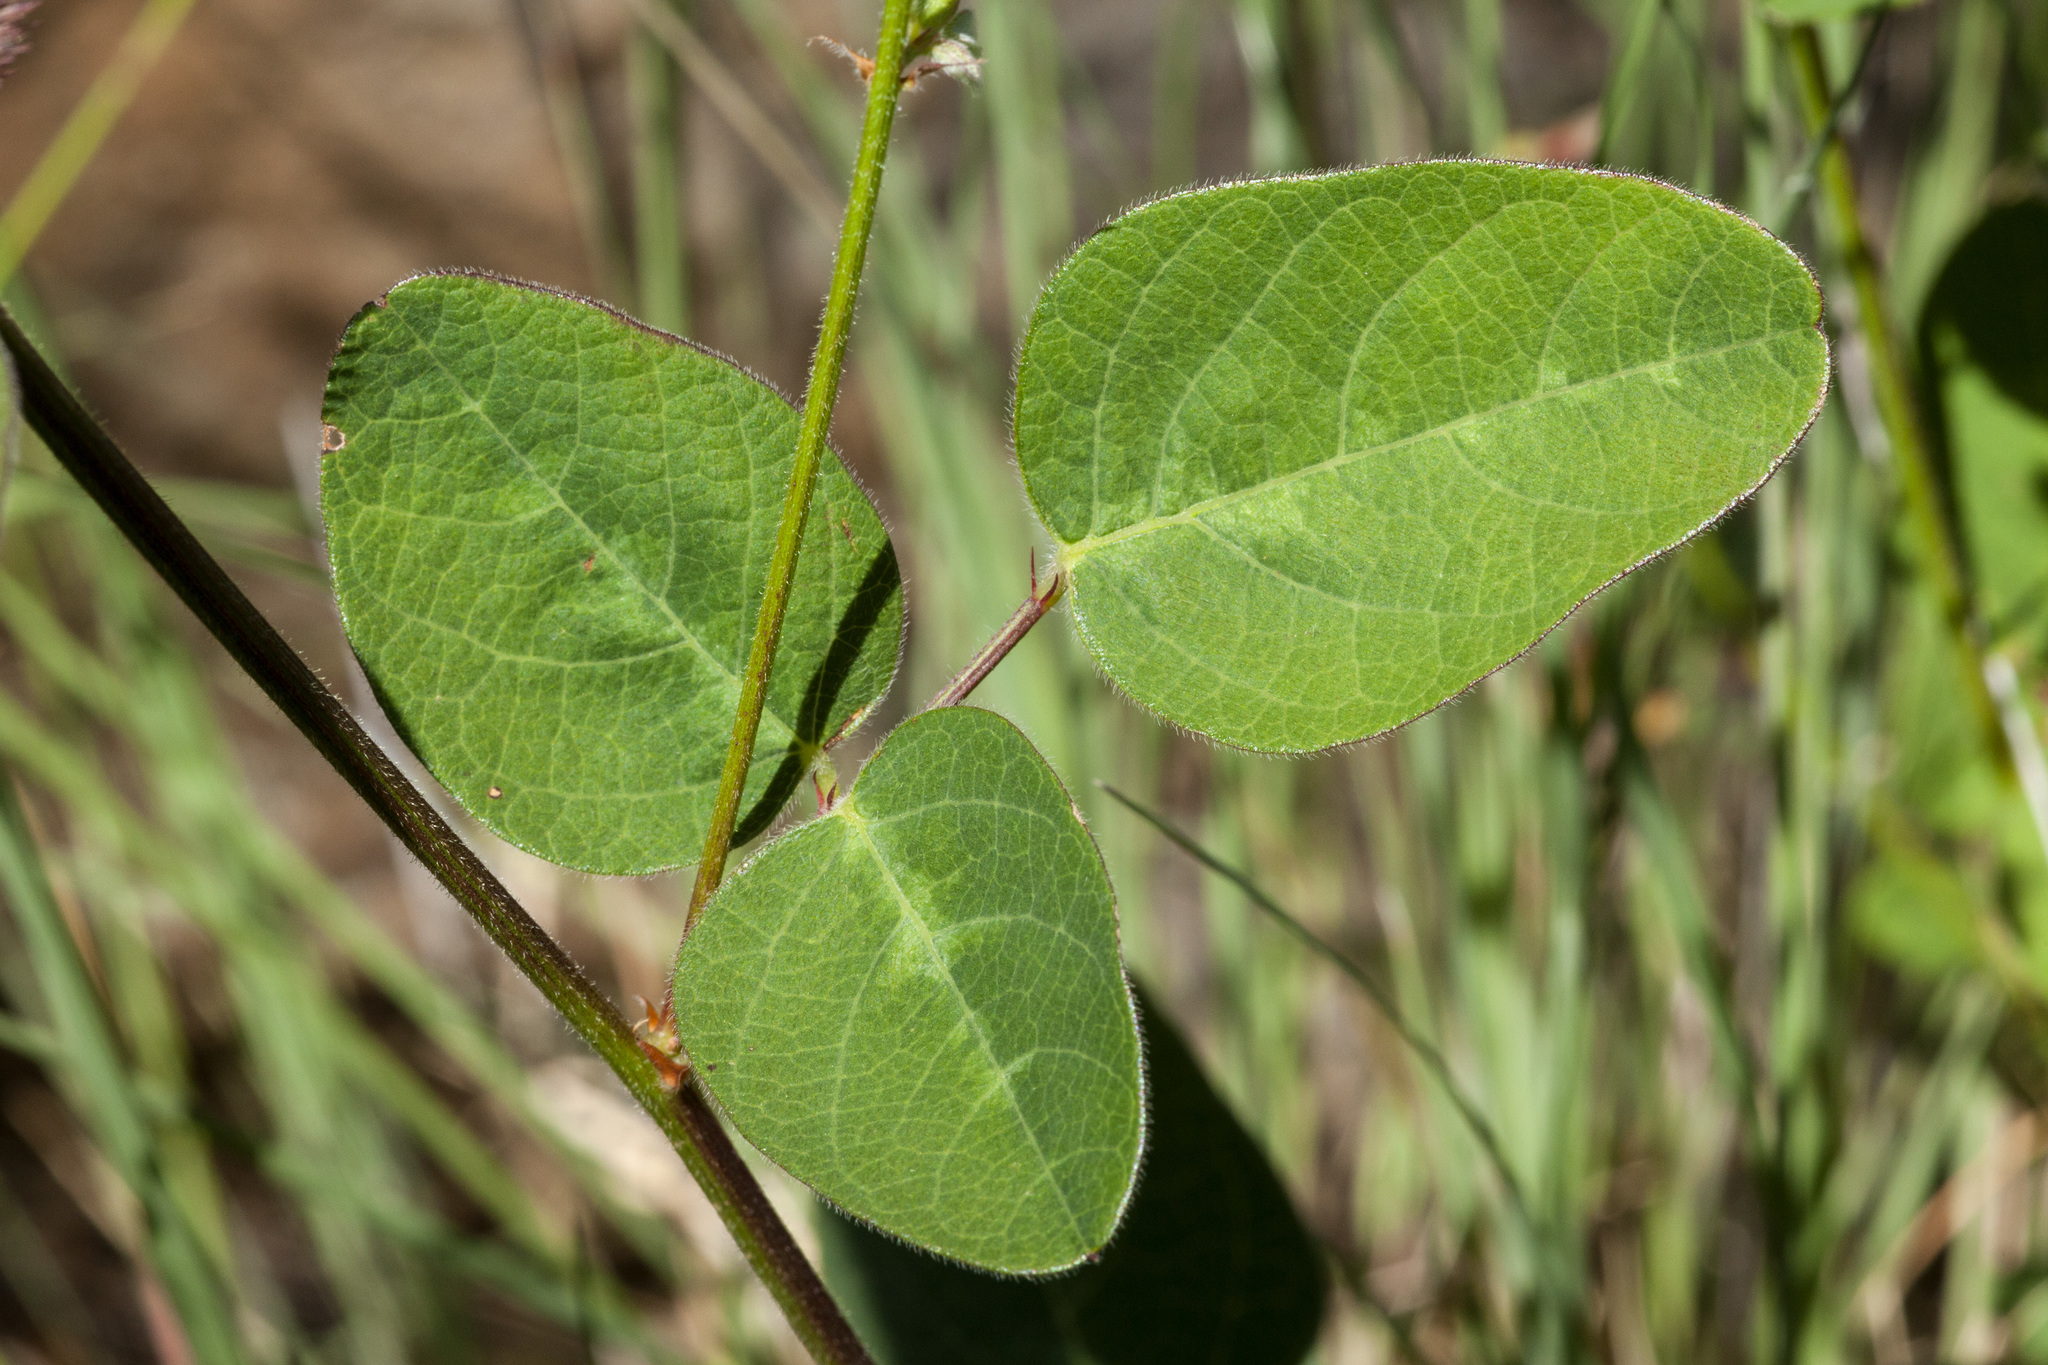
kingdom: Plantae
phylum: Tracheophyta
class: Magnoliopsida
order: Fabales
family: Fabaceae
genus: Desmodium
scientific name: Desmodium grahamii
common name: Graham's tick-trefoil
